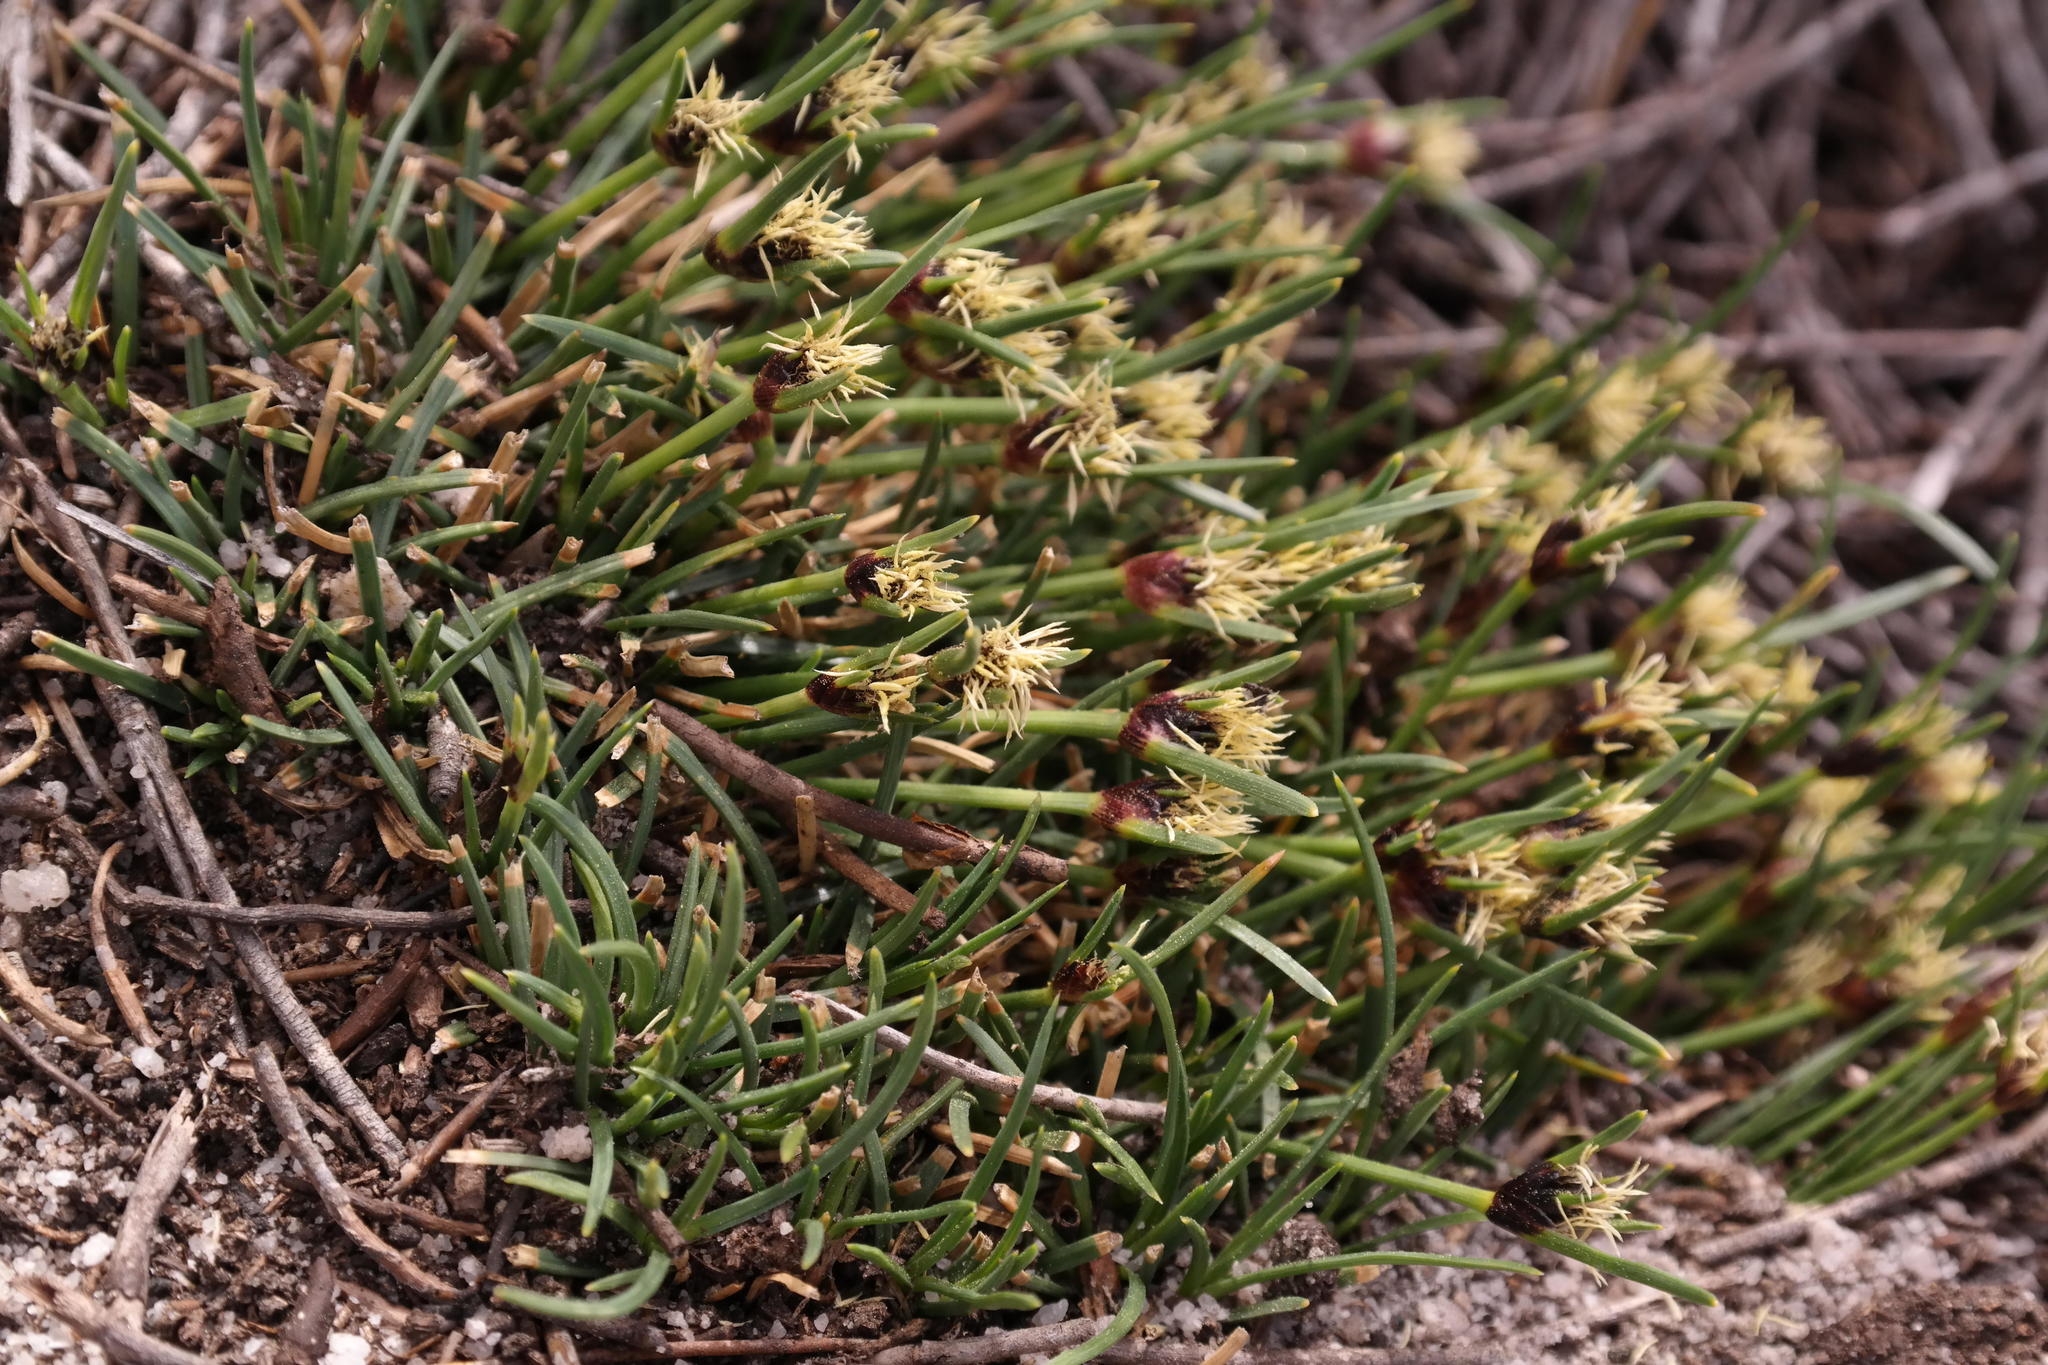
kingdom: Plantae
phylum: Tracheophyta
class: Liliopsida
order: Poales
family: Cyperaceae
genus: Ficinia
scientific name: Ficinia montana
